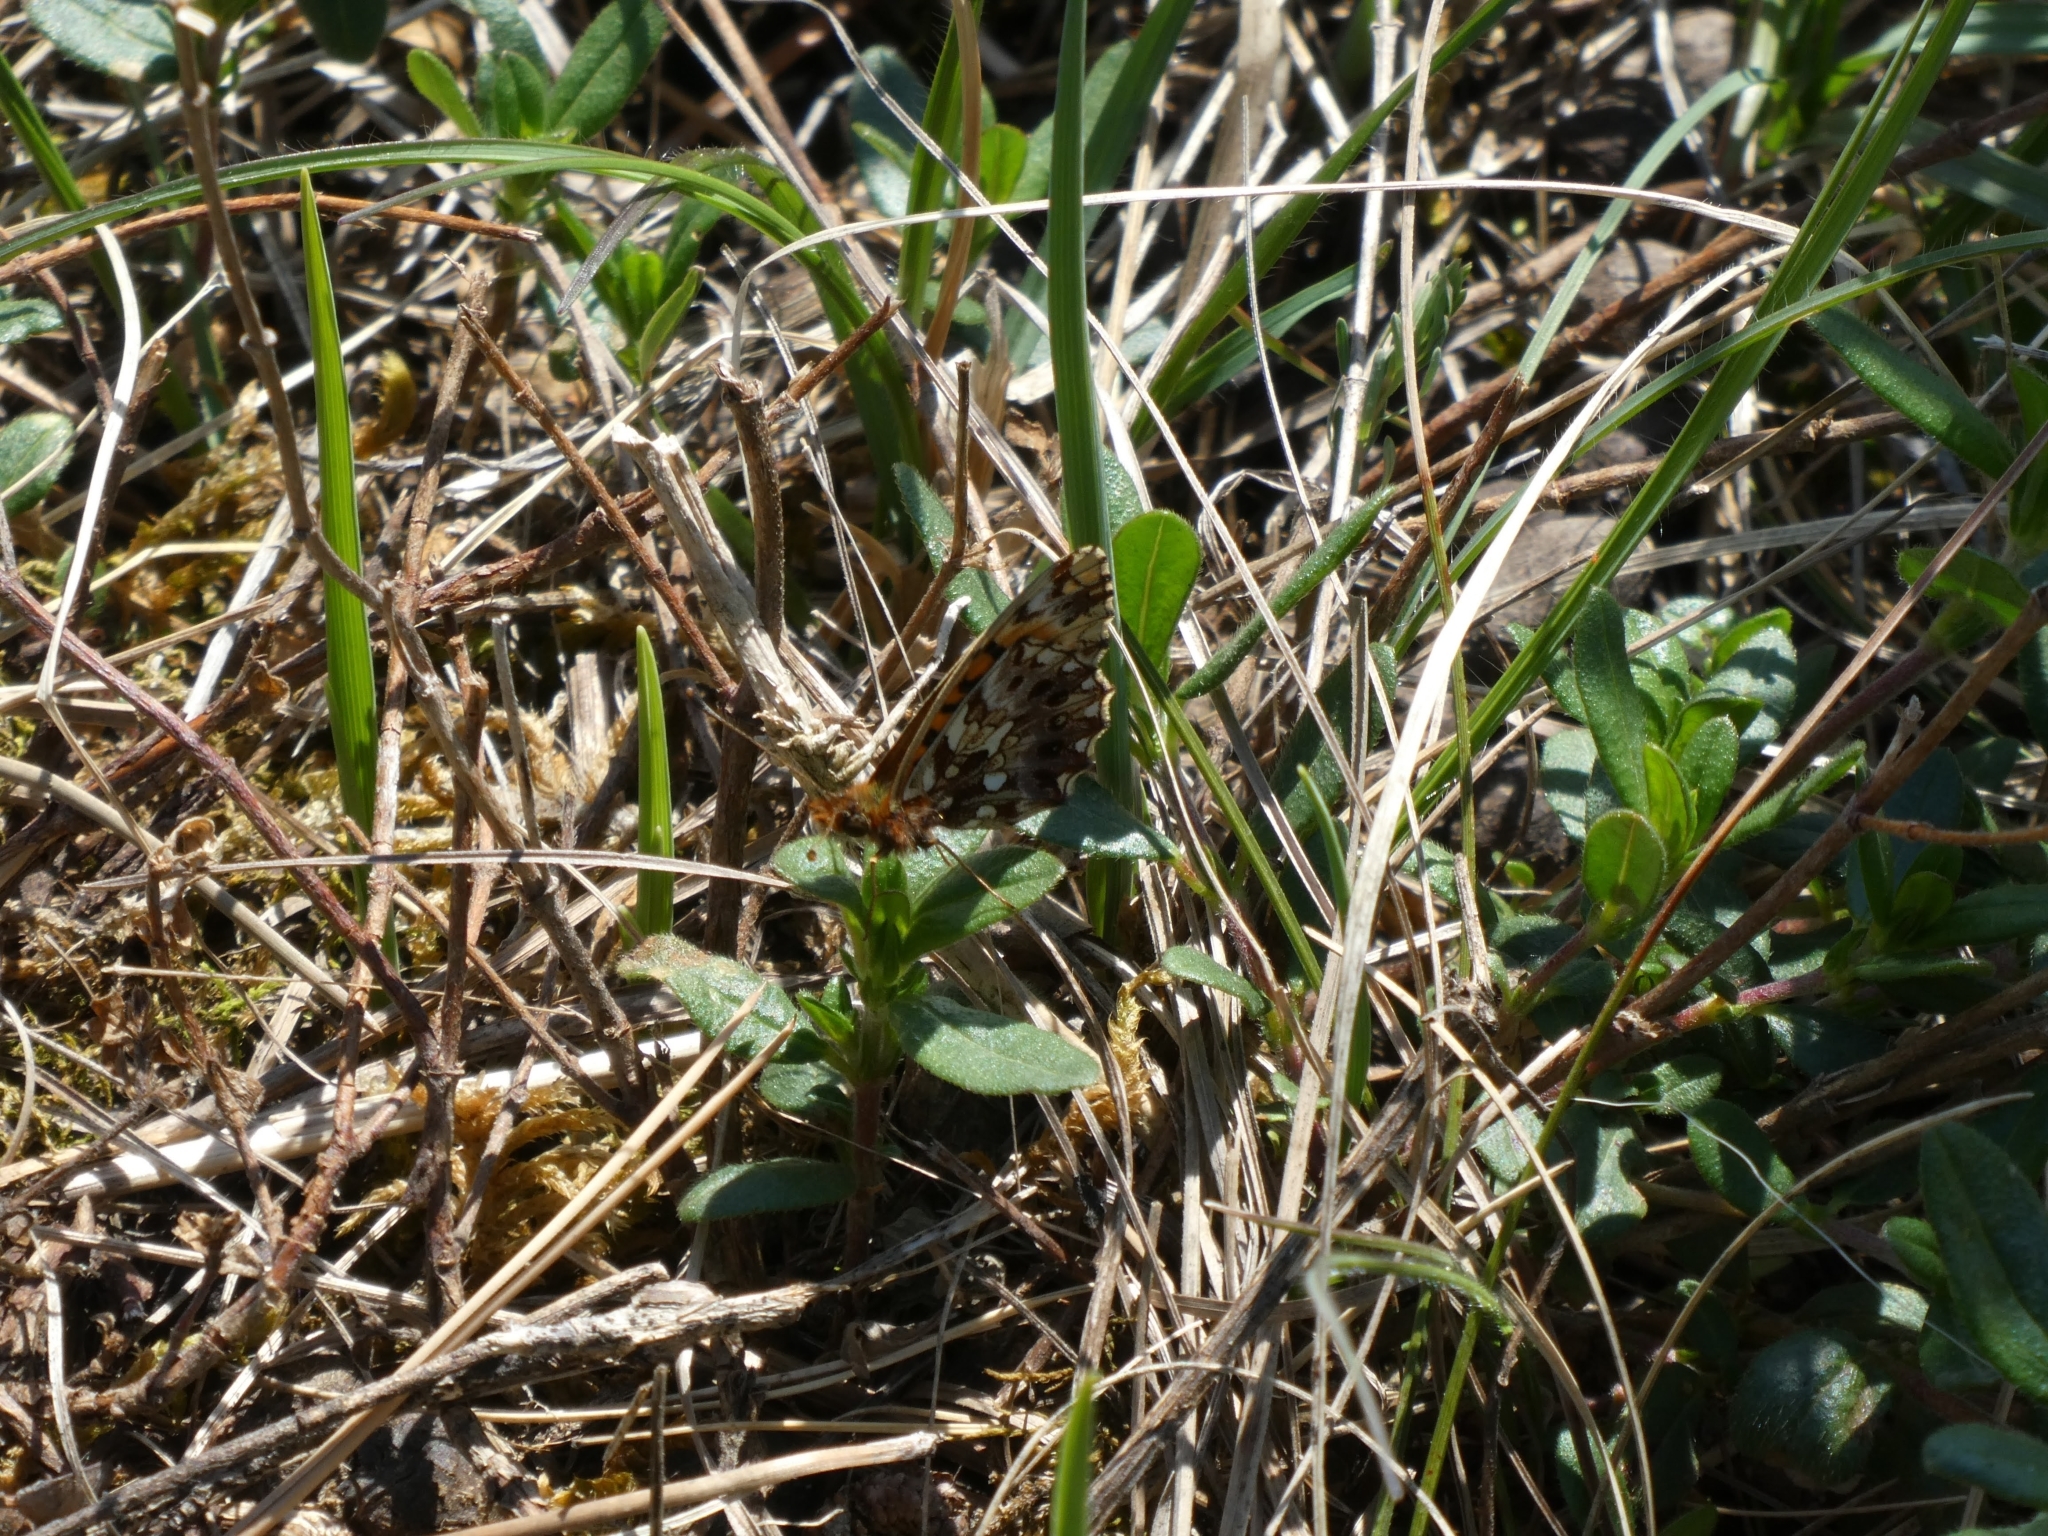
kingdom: Animalia
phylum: Arthropoda
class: Insecta
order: Lepidoptera
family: Nymphalidae
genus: Boloria
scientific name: Boloria dia
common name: Weaver's fritillary
